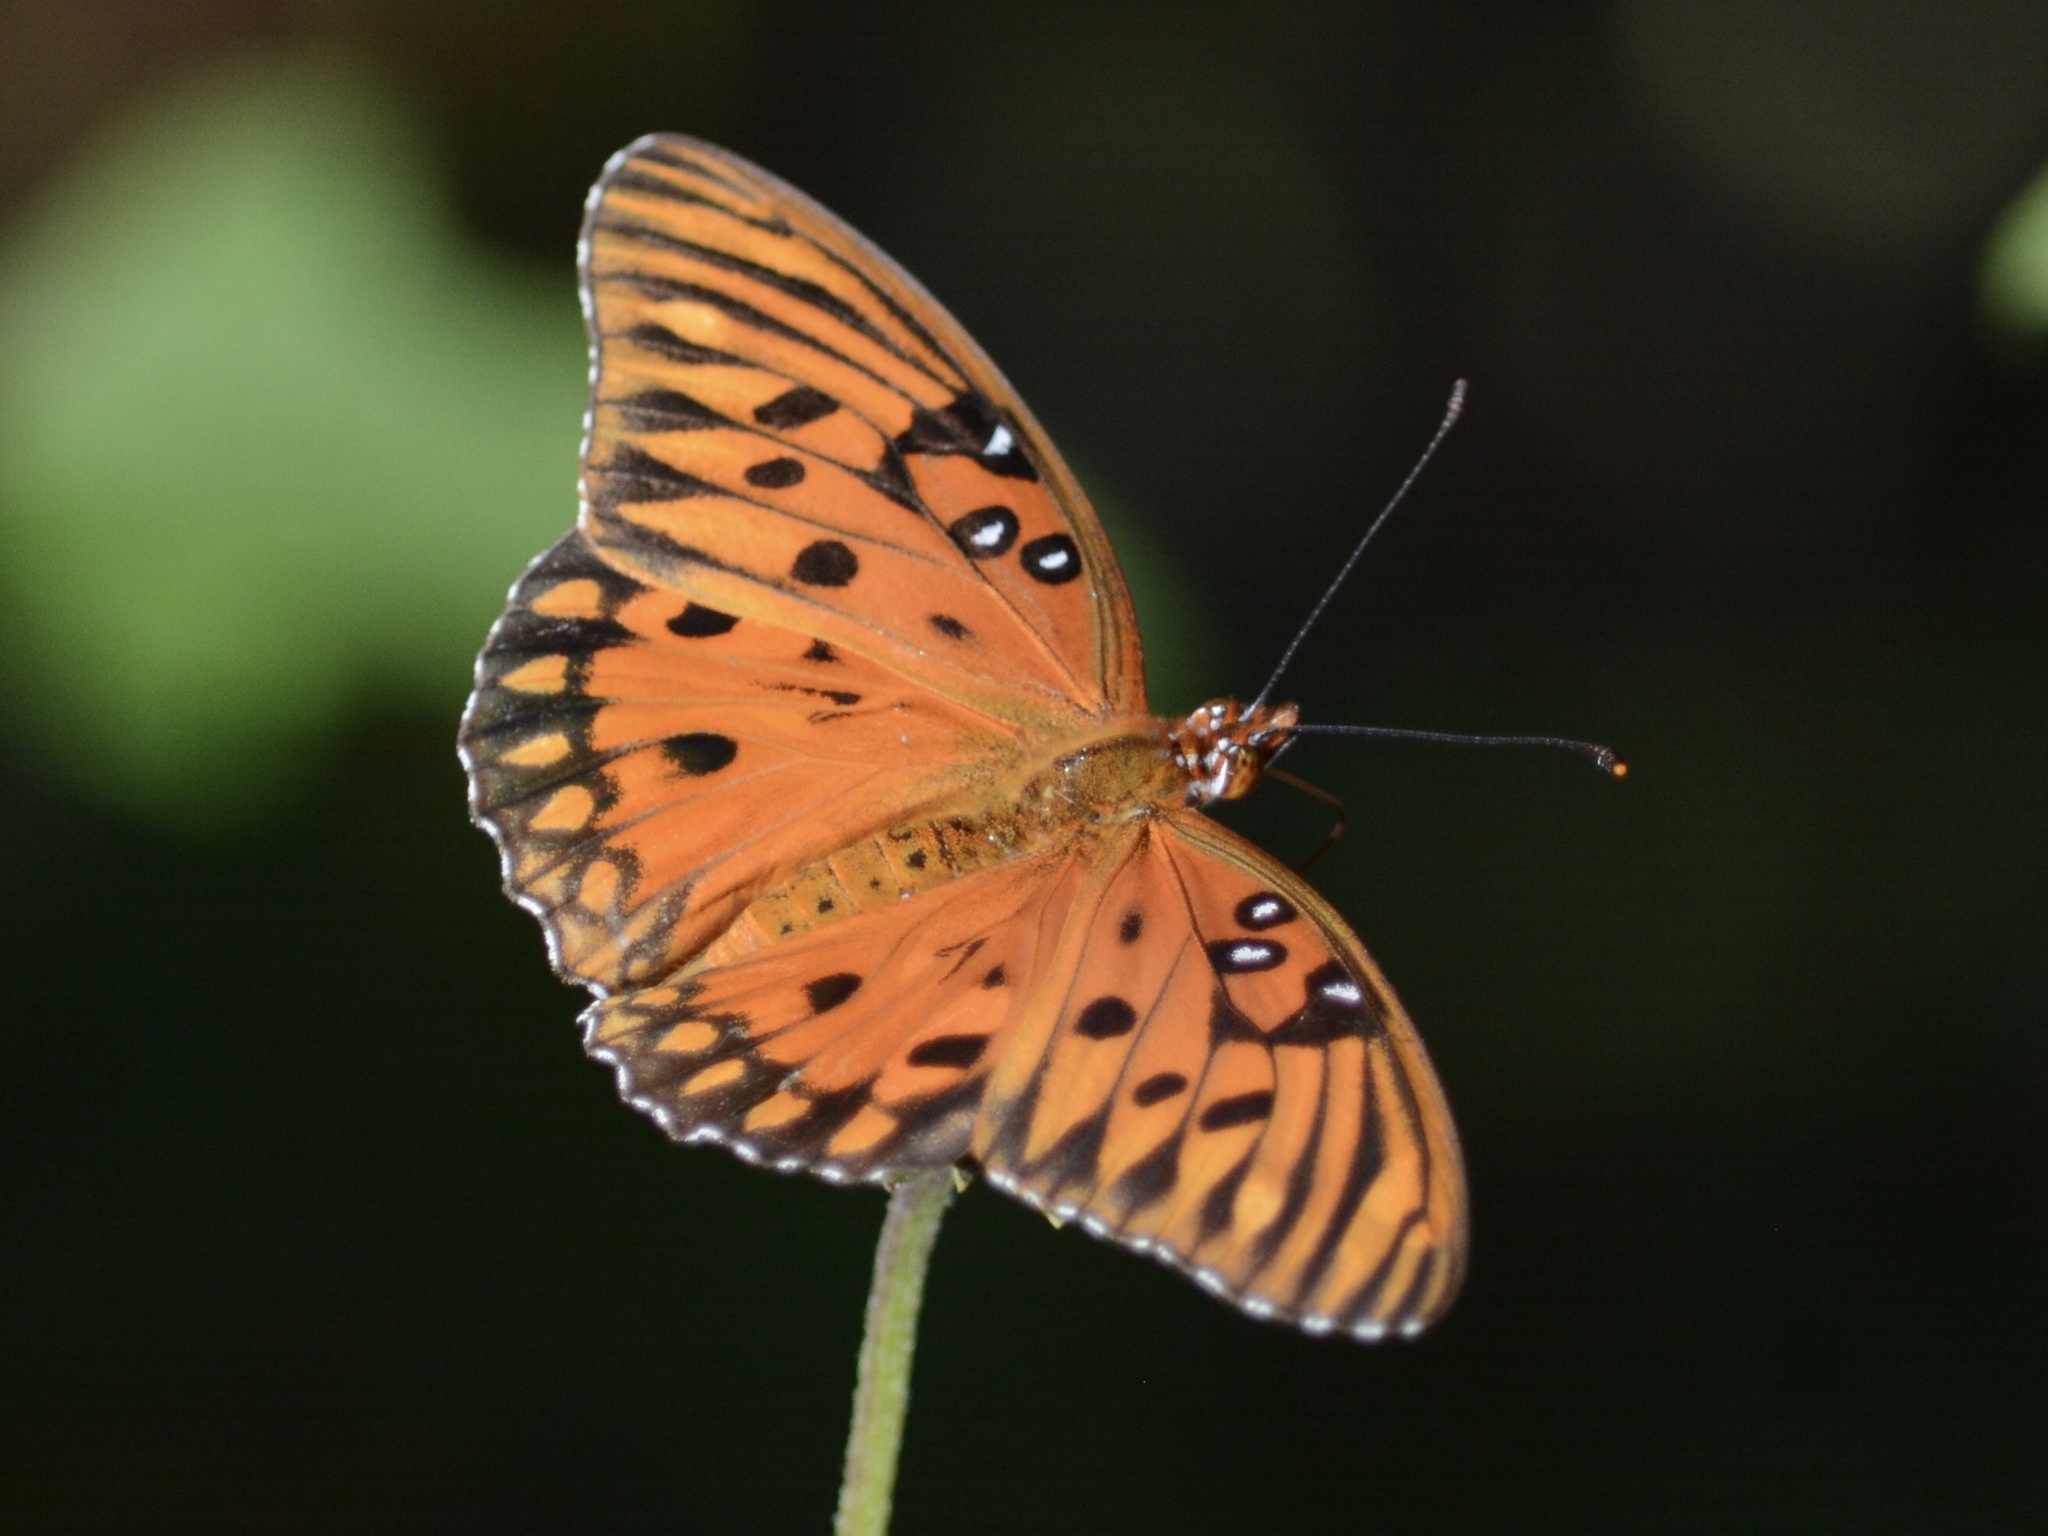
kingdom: Animalia
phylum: Arthropoda
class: Insecta
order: Lepidoptera
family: Nymphalidae
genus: Dione
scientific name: Dione vanillae
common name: Gulf fritillary
